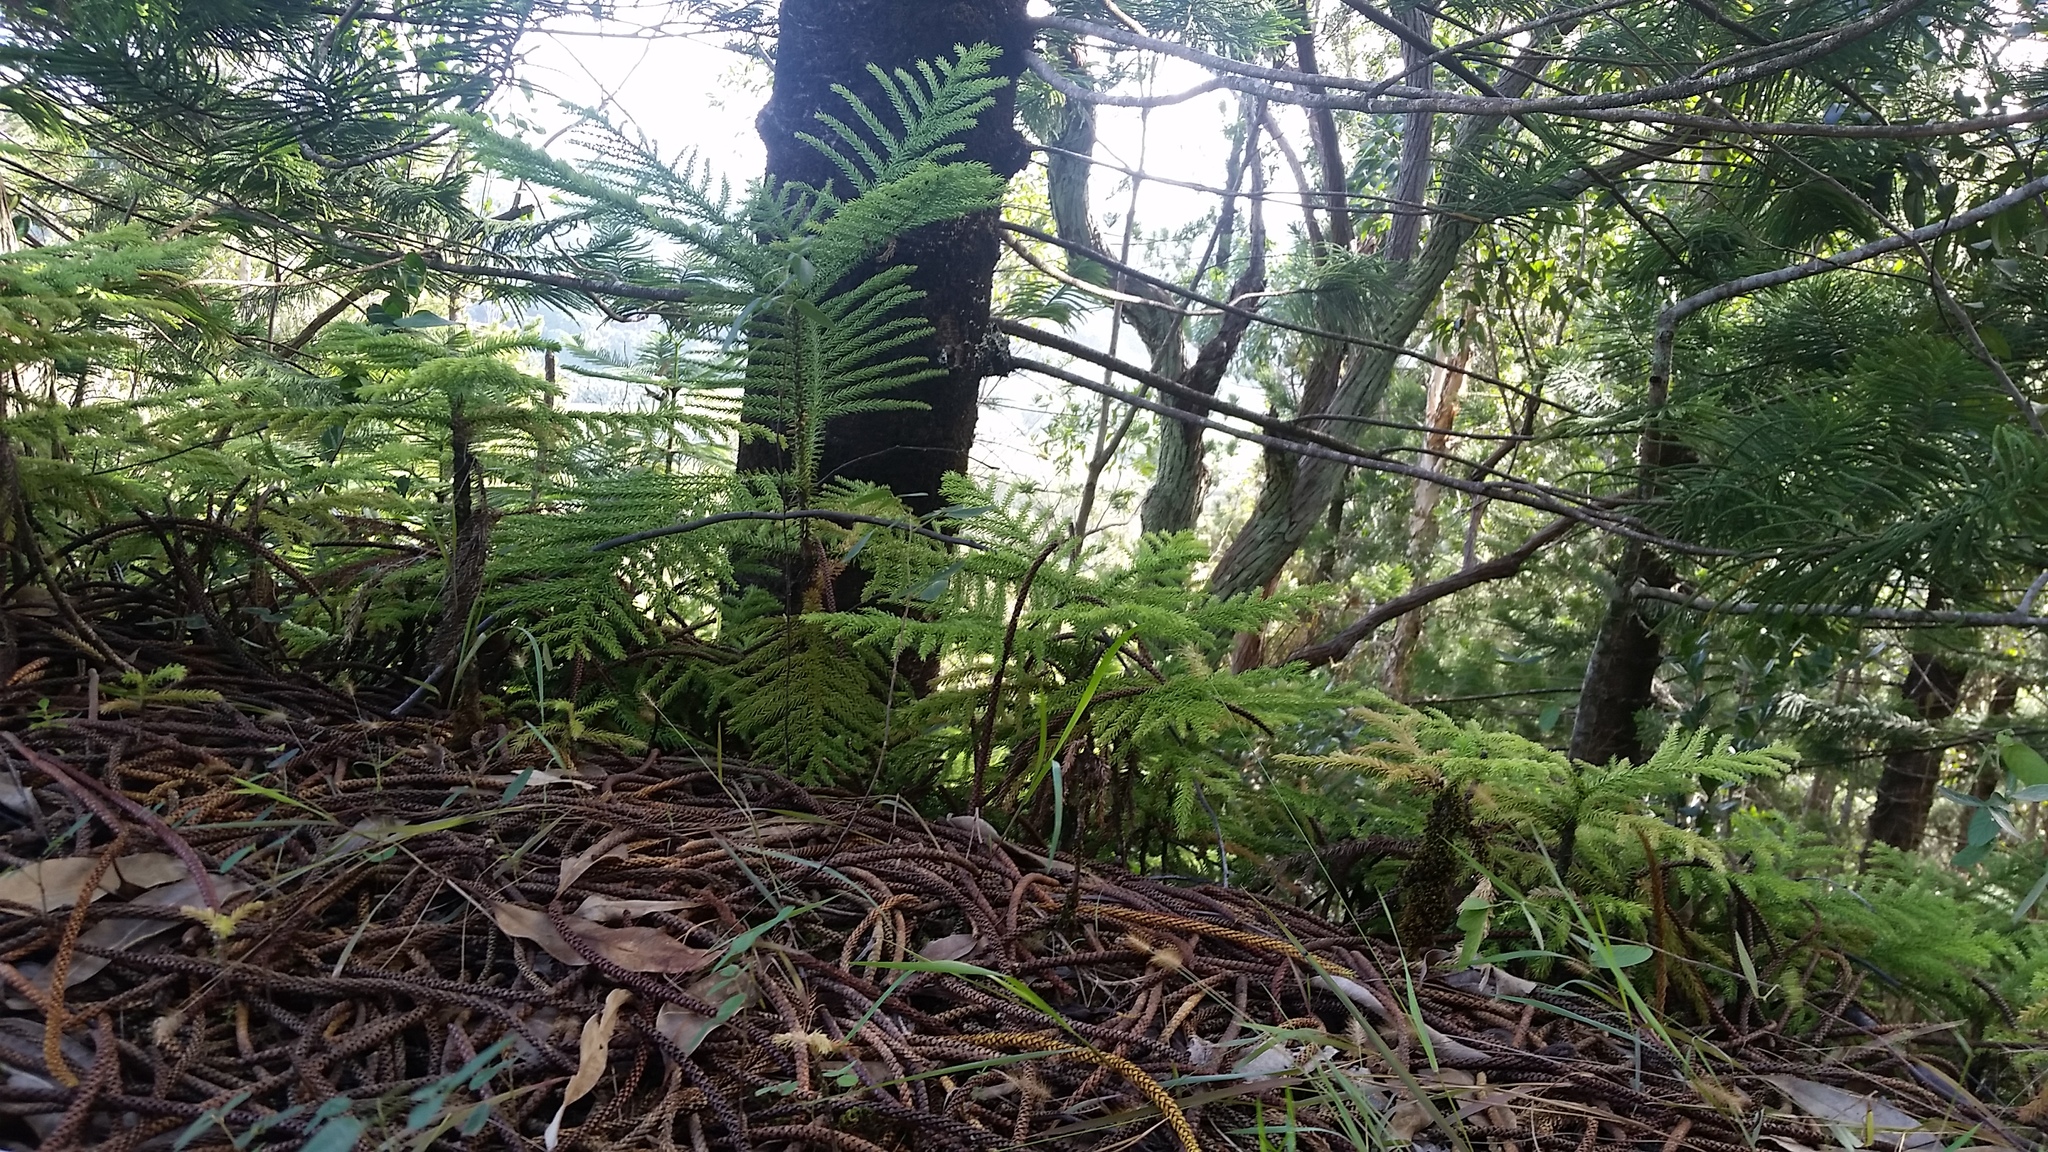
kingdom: Plantae
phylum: Tracheophyta
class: Pinopsida
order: Pinales
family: Araucariaceae
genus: Araucaria
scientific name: Araucaria columnaris
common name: Coral reef araucaria
